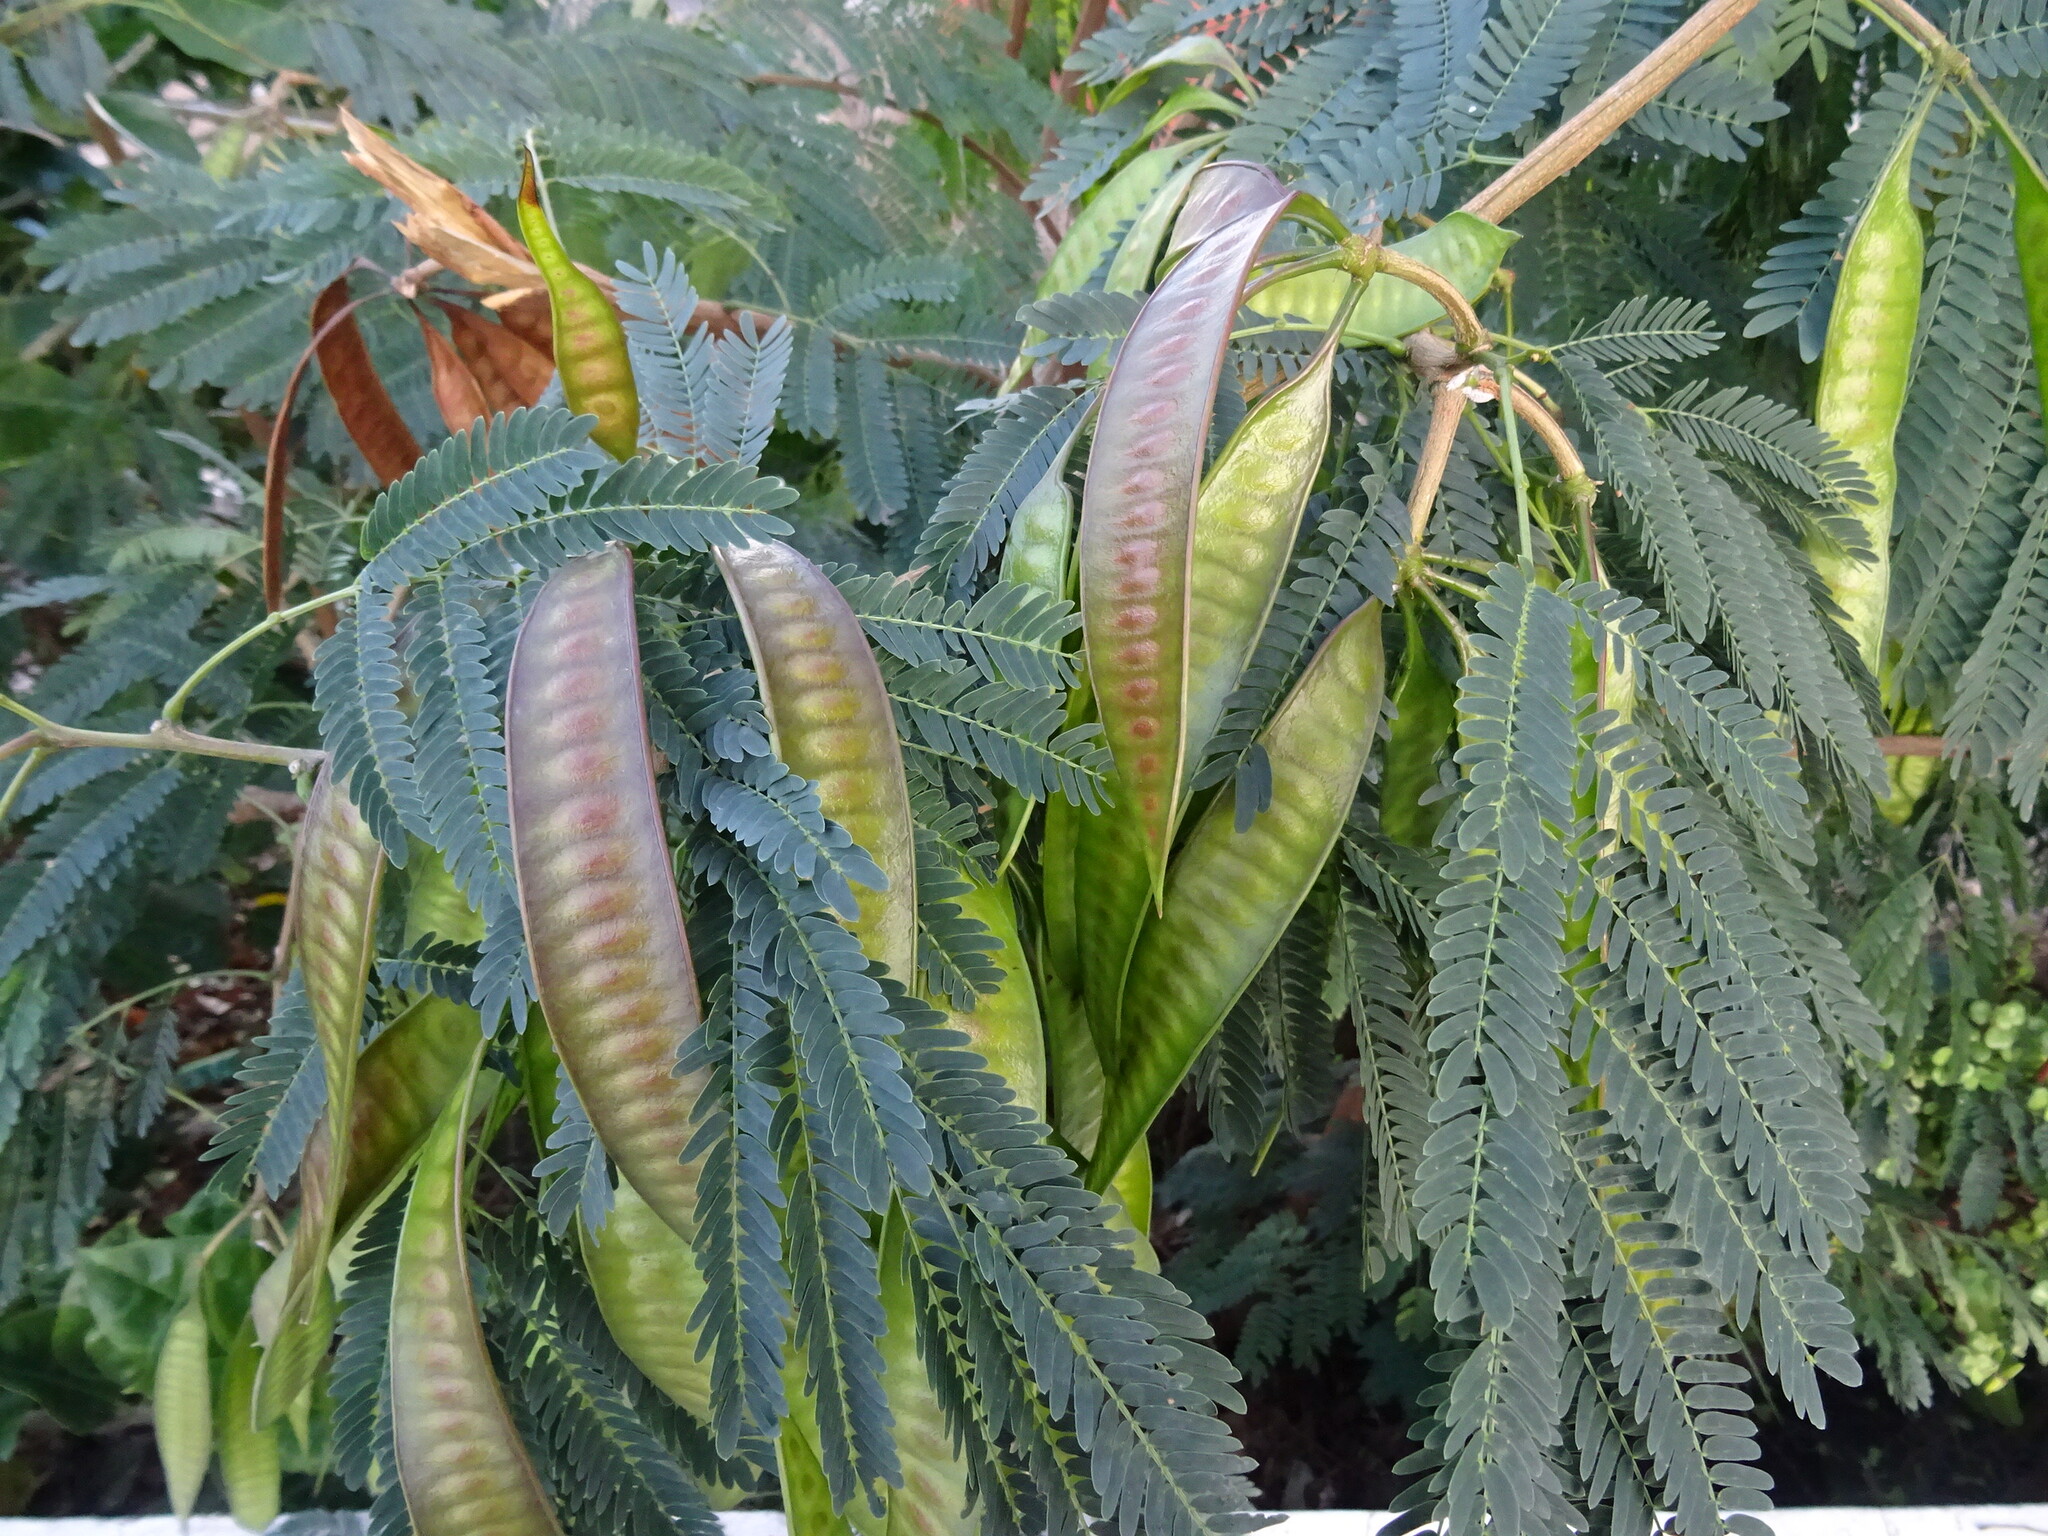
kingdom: Plantae
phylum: Tracheophyta
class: Magnoliopsida
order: Fabales
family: Fabaceae
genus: Leucaena
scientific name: Leucaena leucocephala
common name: White leadtree
